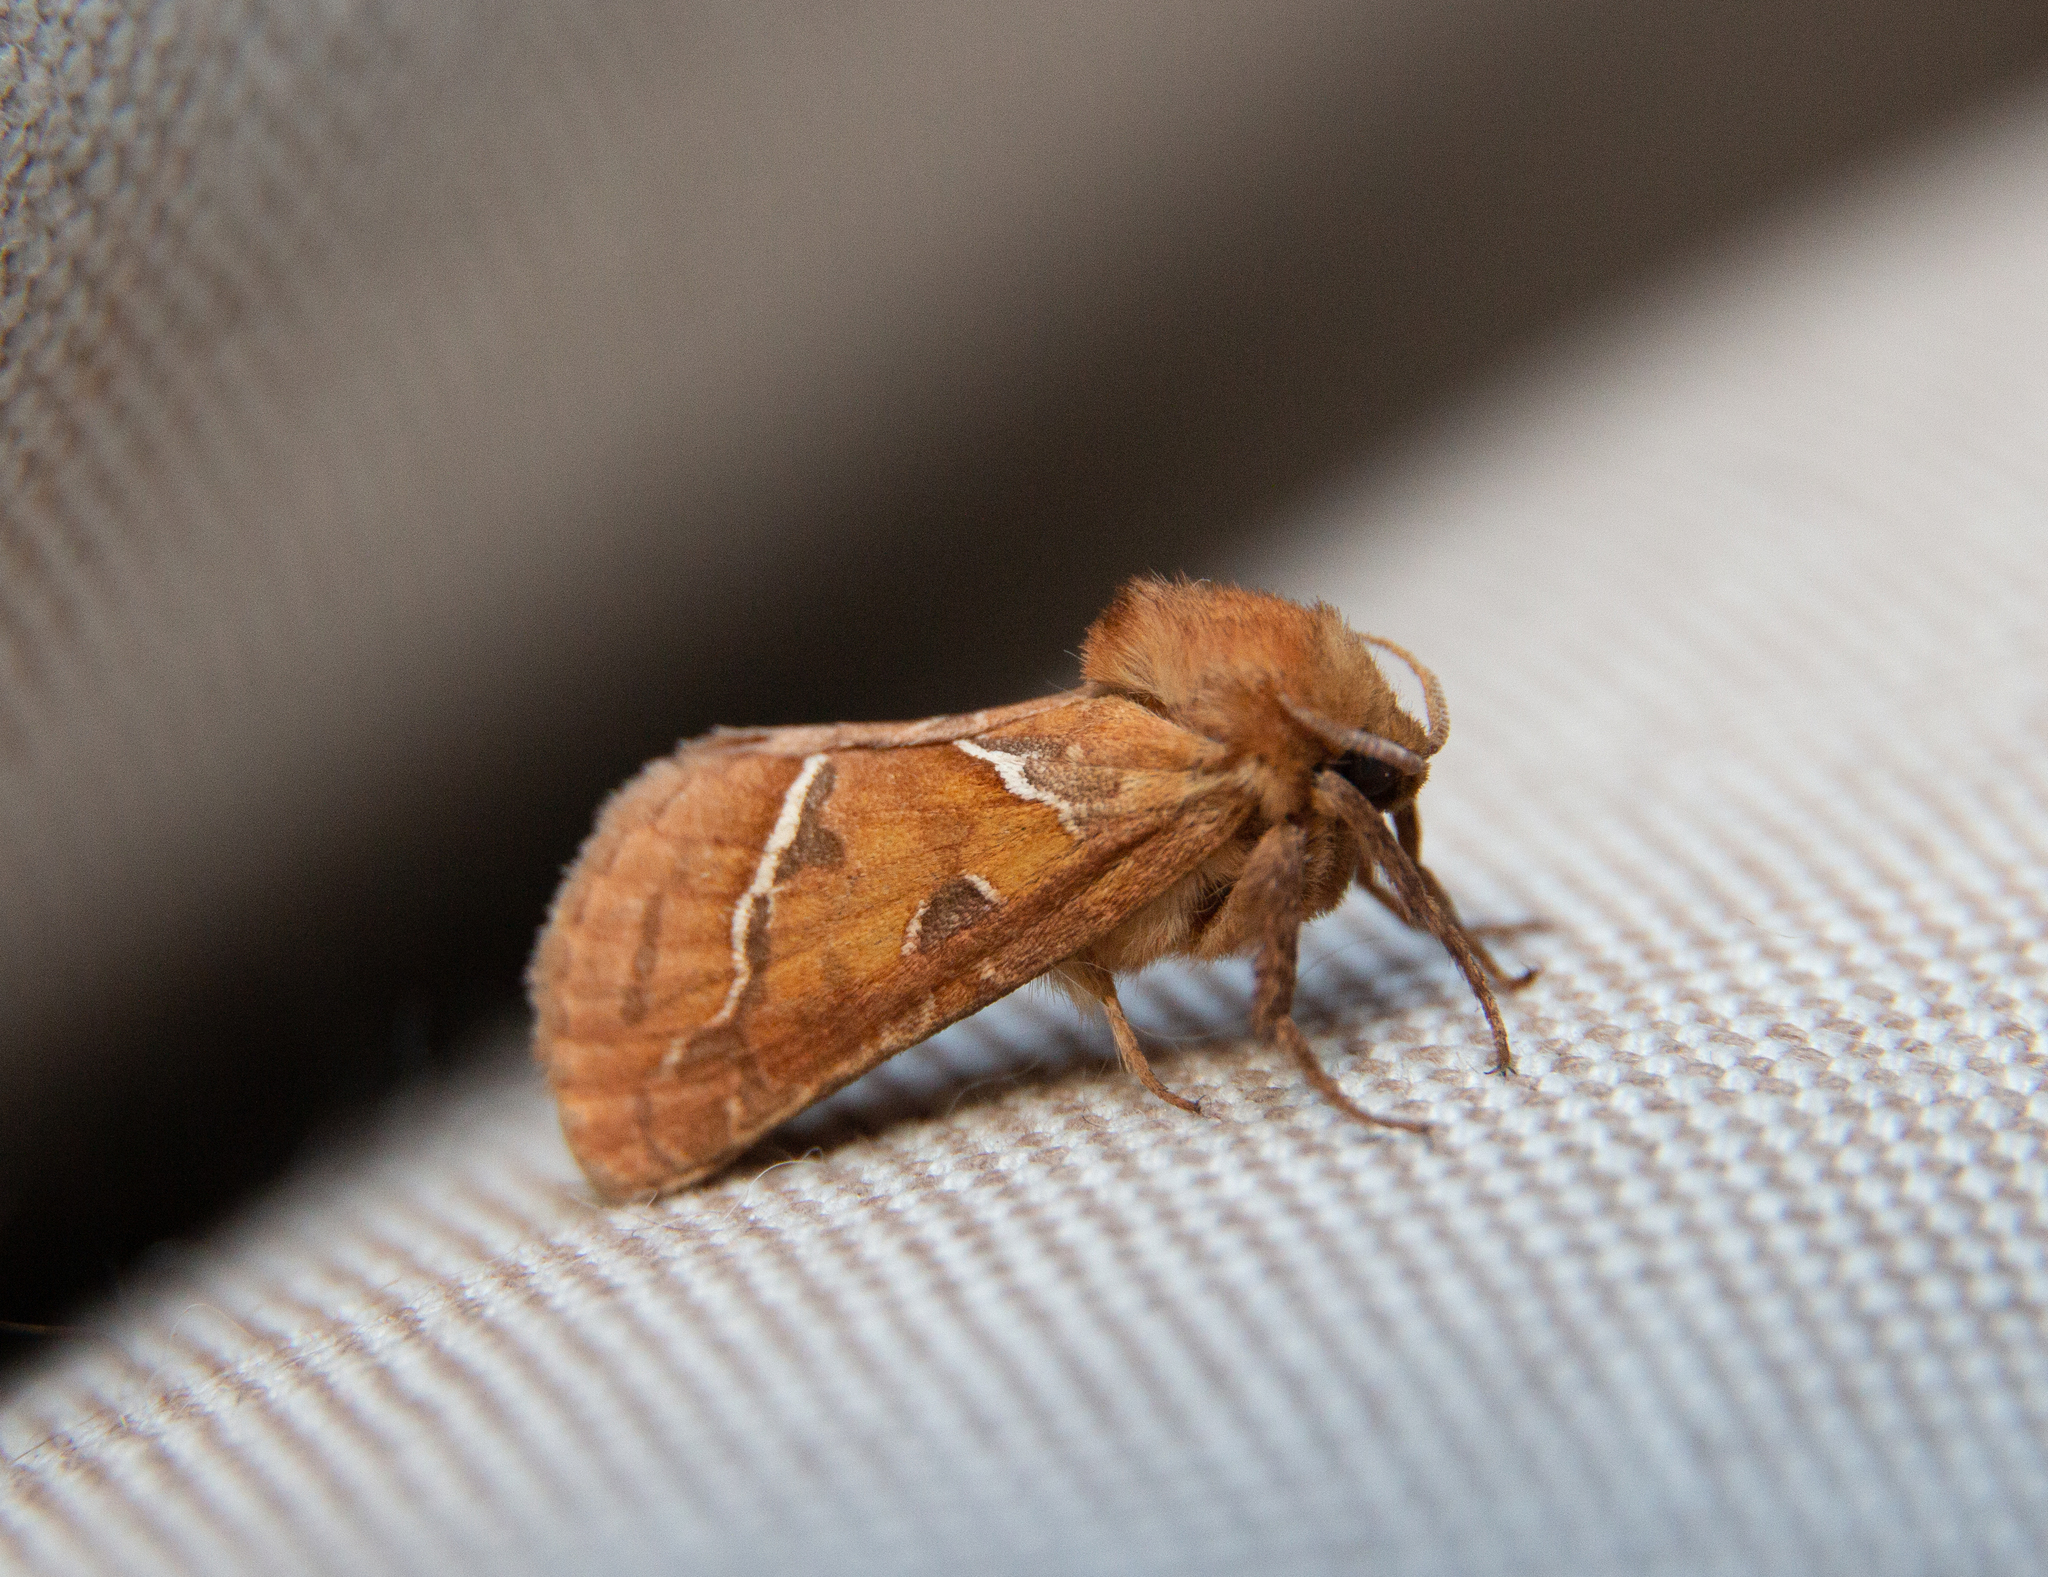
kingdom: Animalia
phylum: Arthropoda
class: Insecta
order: Lepidoptera
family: Hepialidae
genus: Triodia
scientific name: Triodia sylvina
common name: Orange swift
